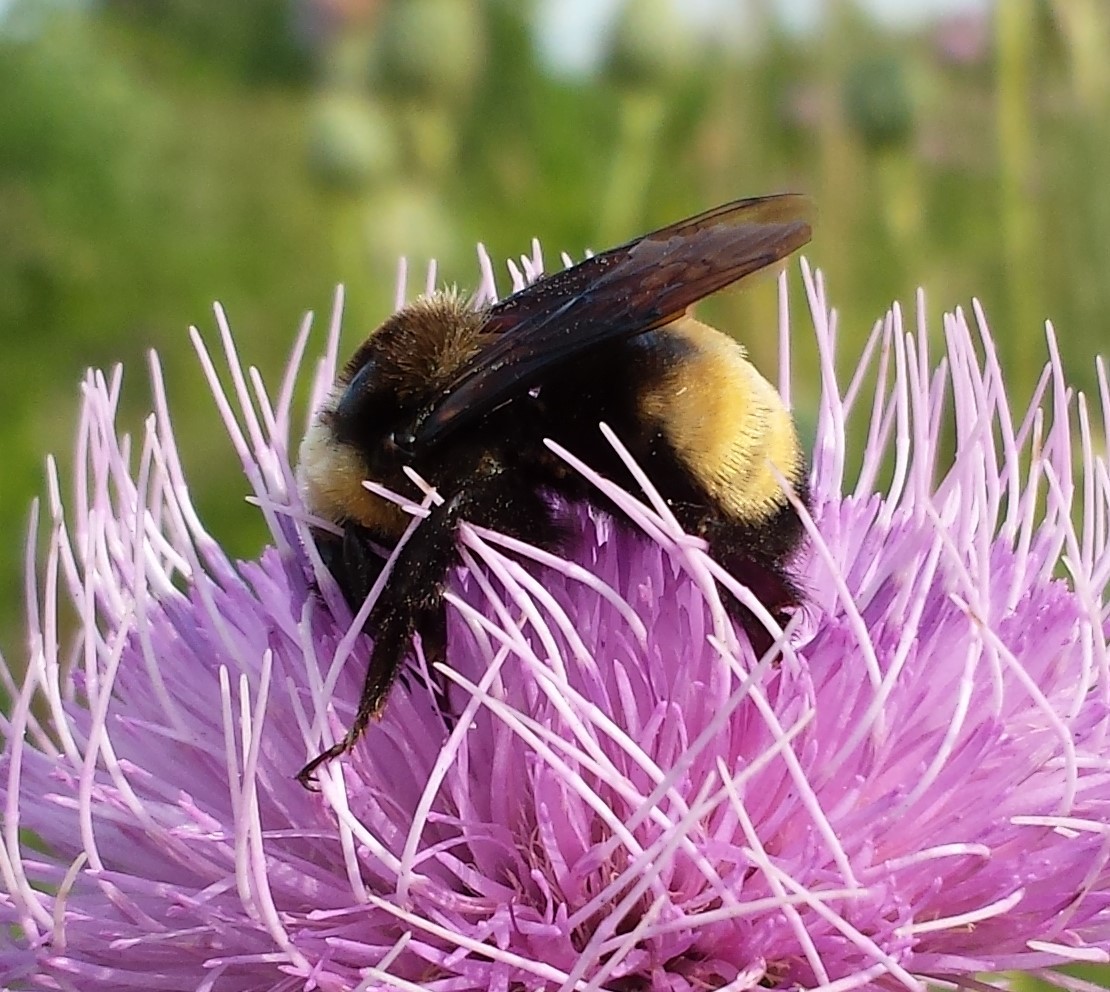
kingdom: Animalia
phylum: Arthropoda
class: Insecta
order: Hymenoptera
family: Apidae
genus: Bombus
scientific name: Bombus auricomus
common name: Black and gold bumble bee
